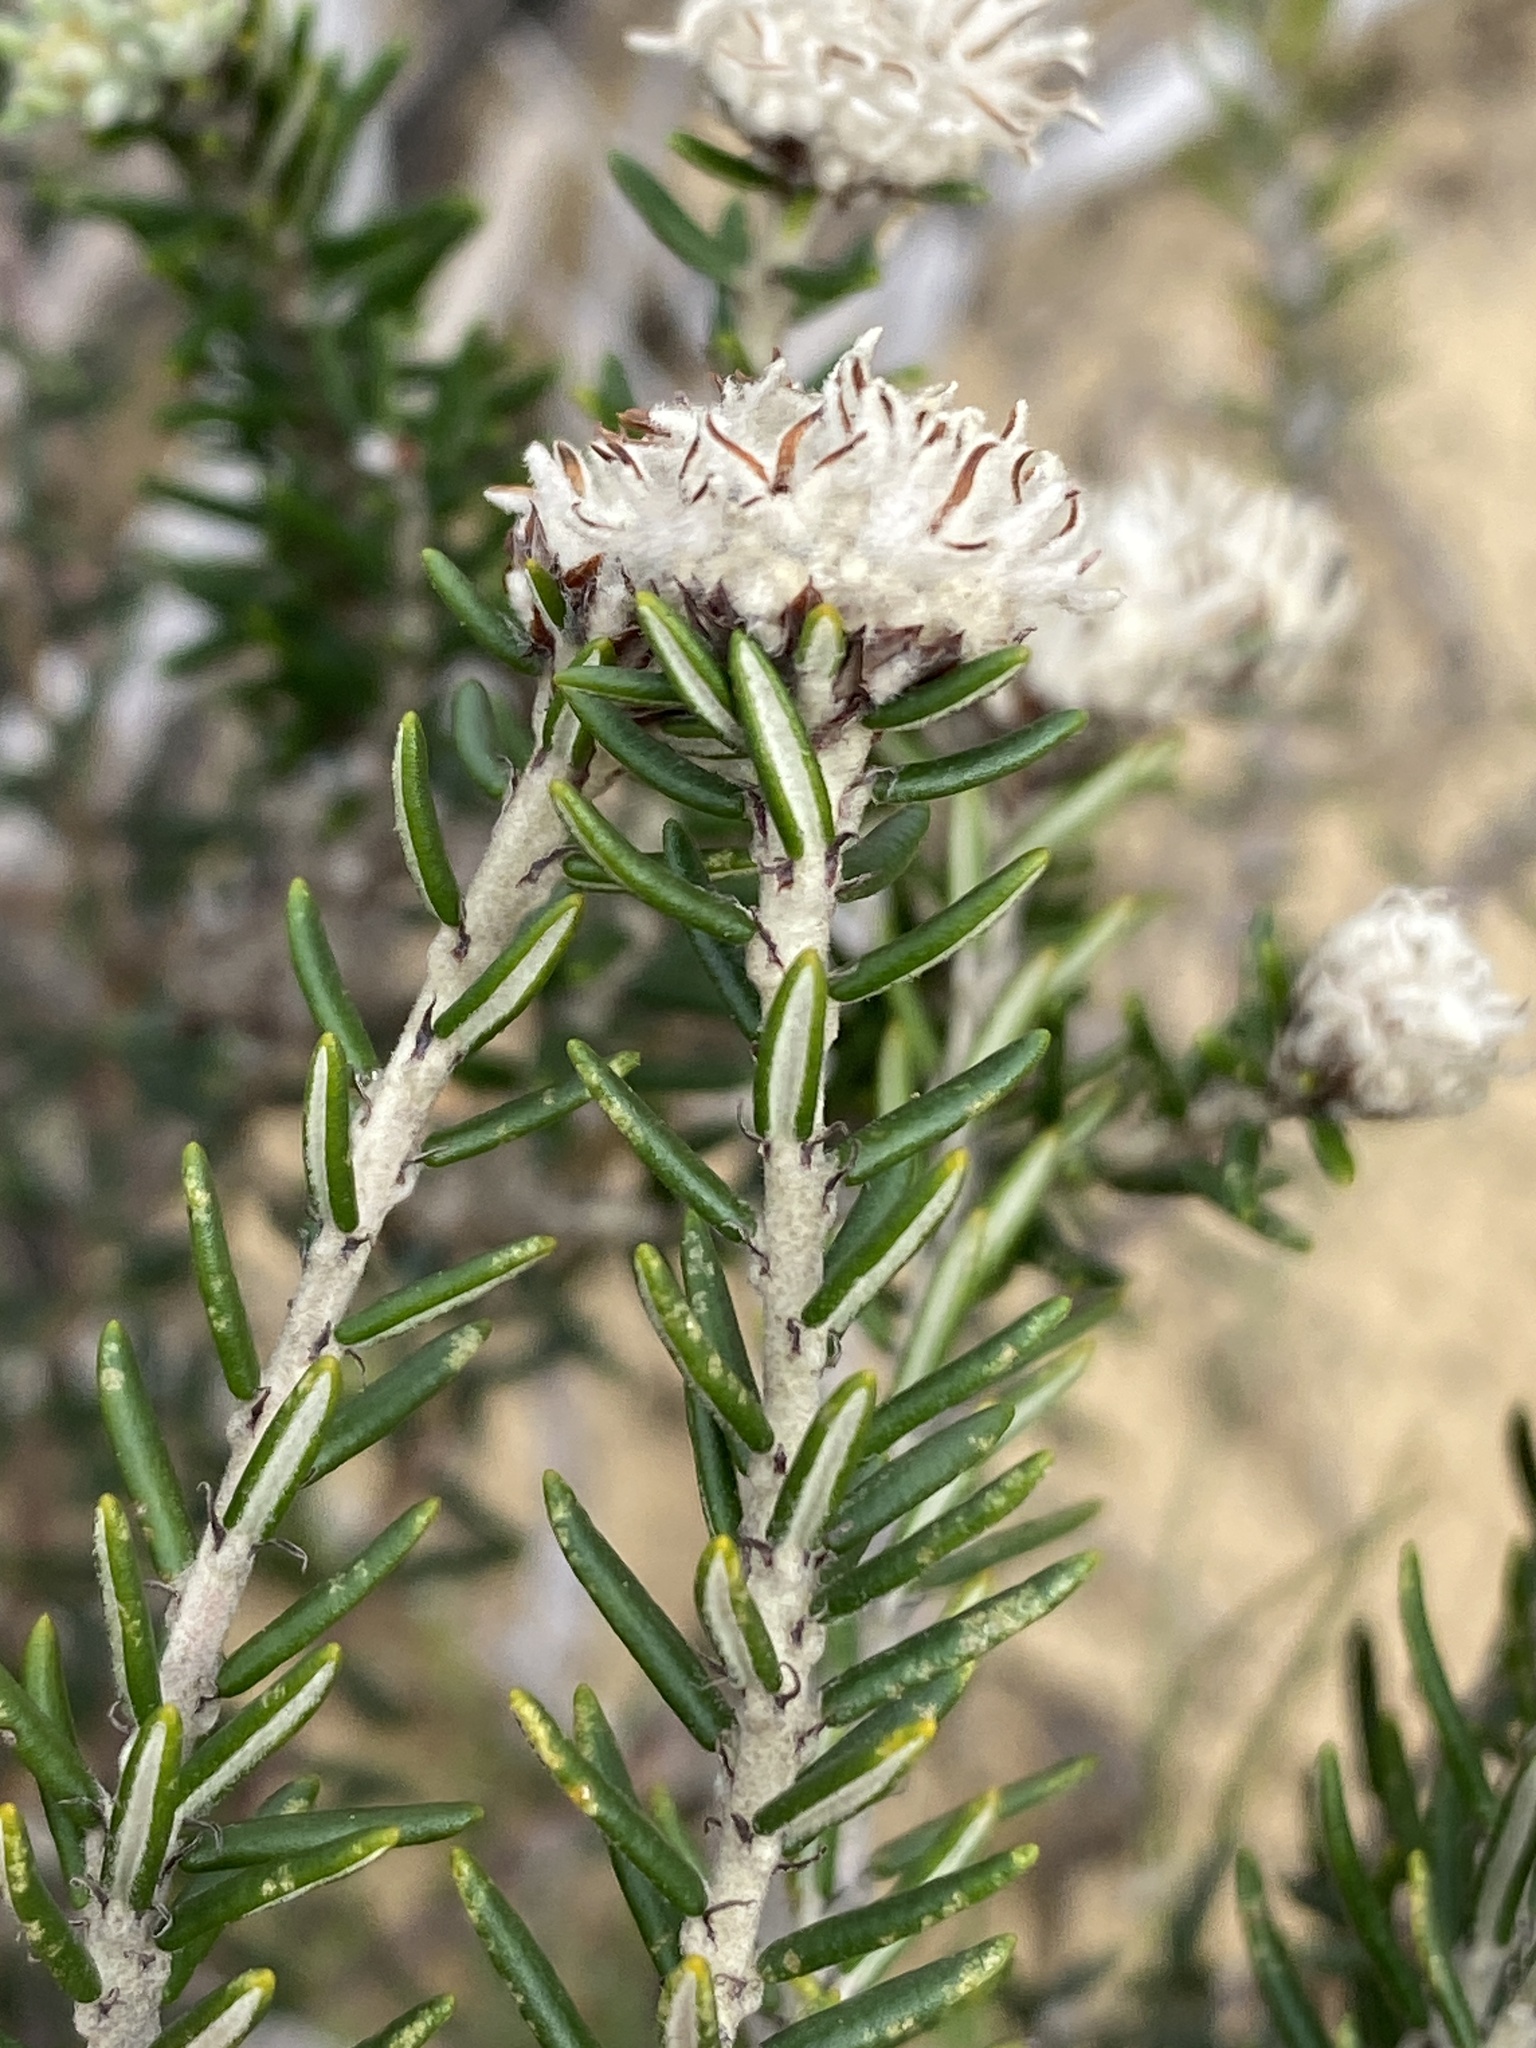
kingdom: Plantae
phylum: Tracheophyta
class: Magnoliopsida
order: Rosales
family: Rhamnaceae
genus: Trichocephalus
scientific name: Trichocephalus stipularis
